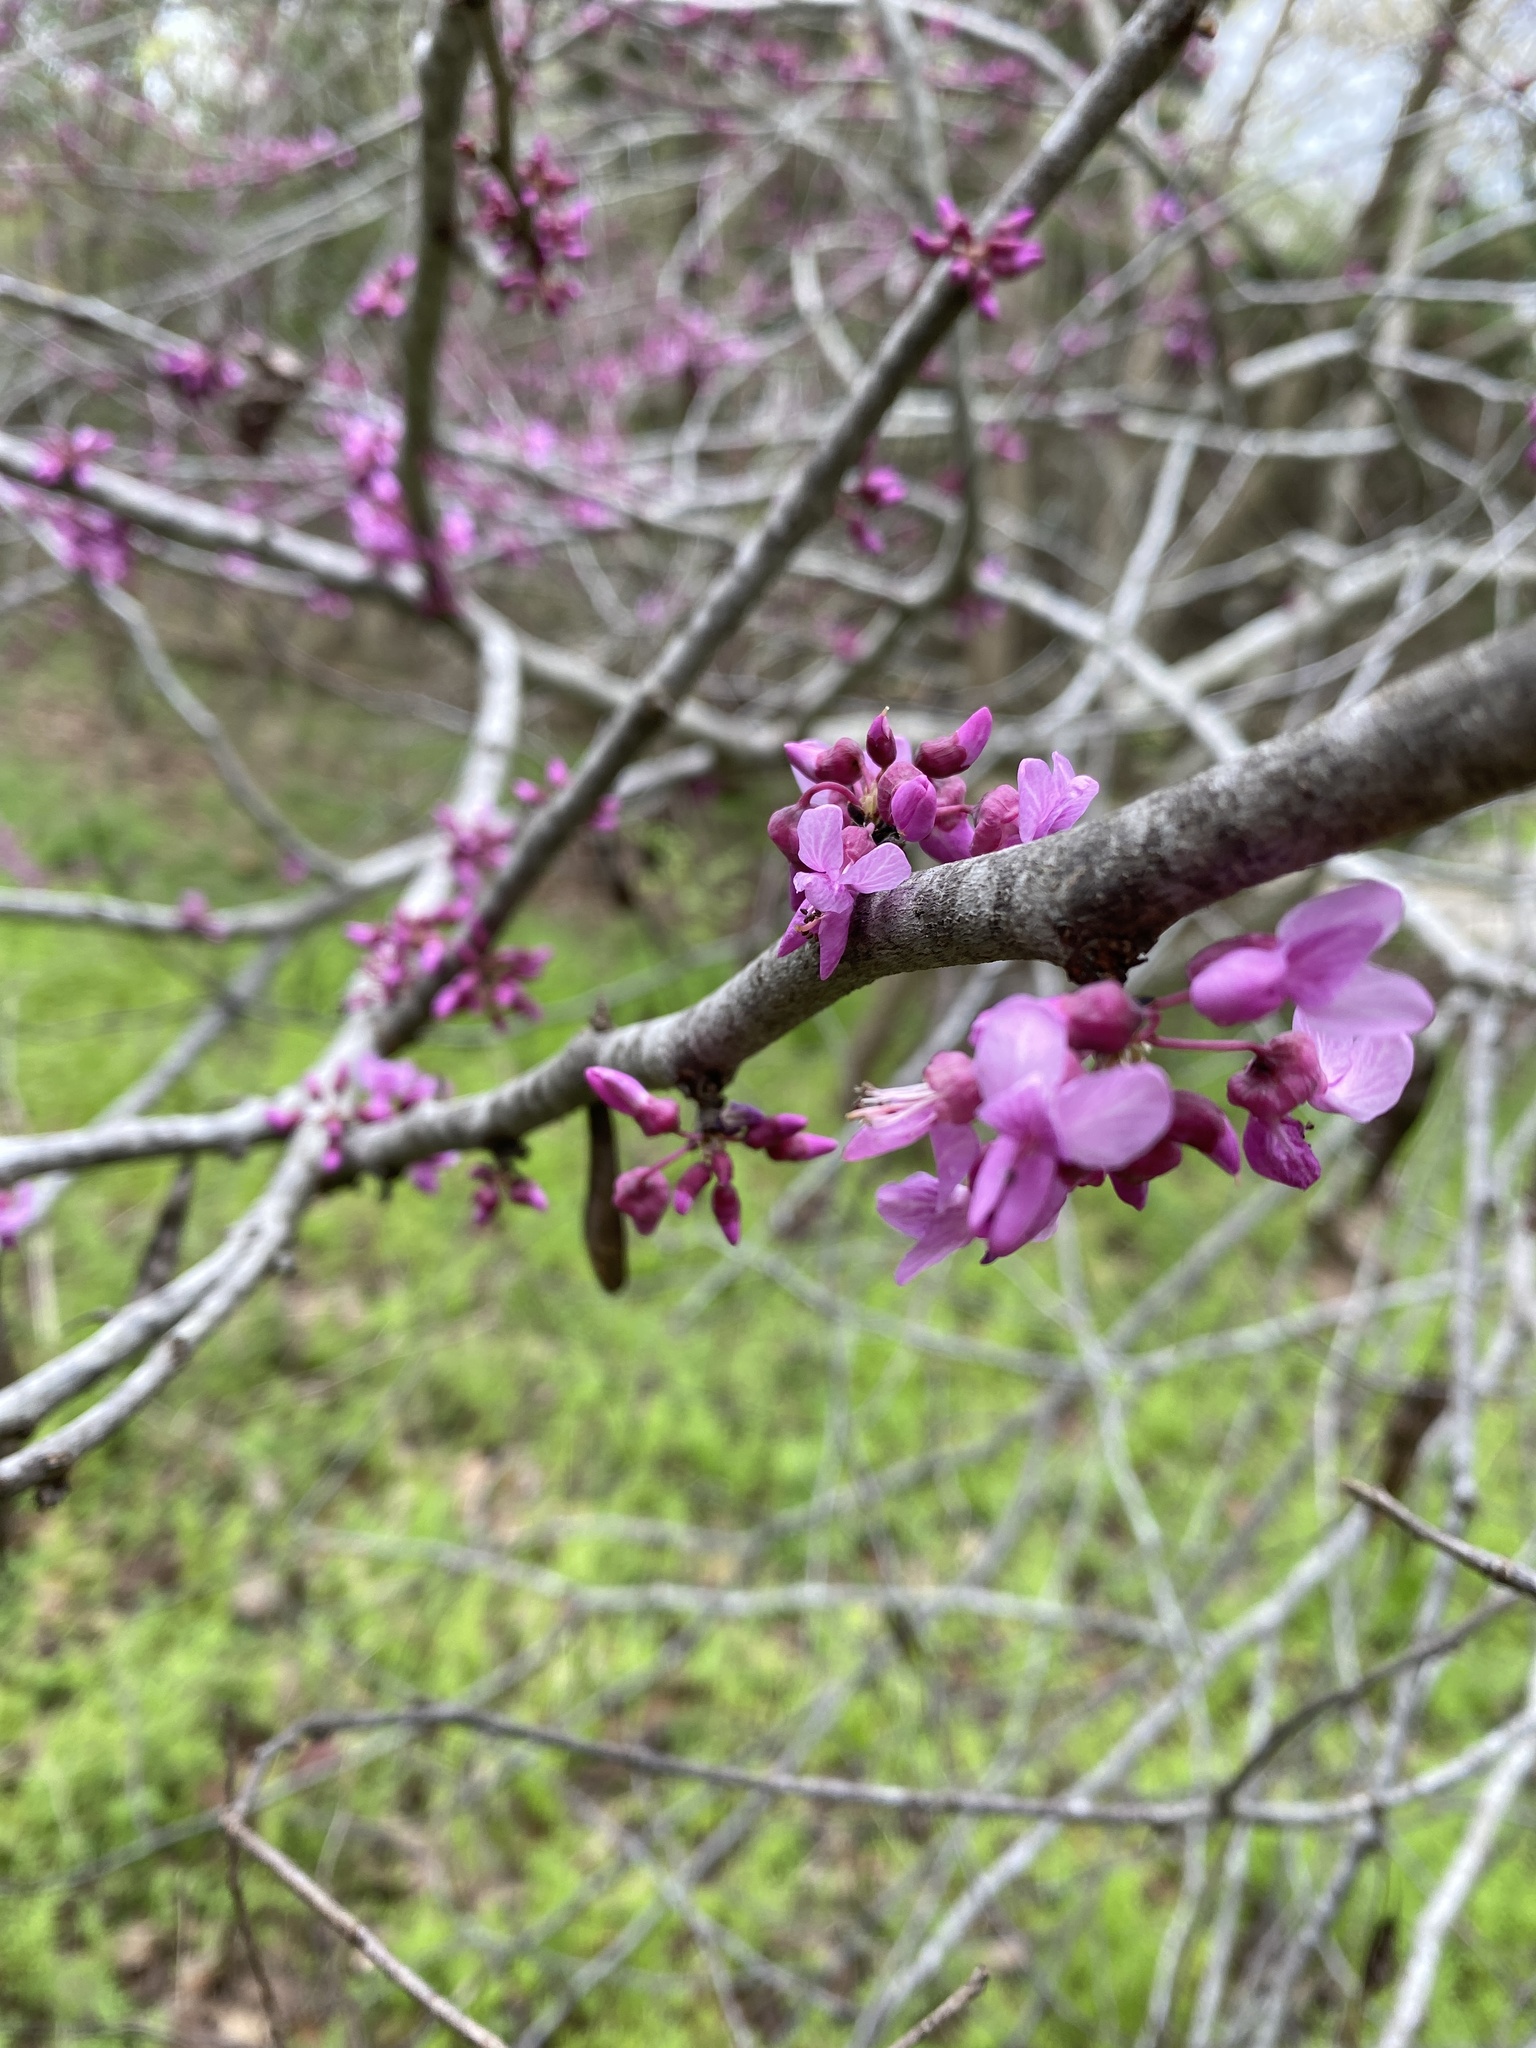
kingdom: Plantae
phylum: Tracheophyta
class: Magnoliopsida
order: Fabales
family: Fabaceae
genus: Cercis
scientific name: Cercis canadensis
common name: Eastern redbud
